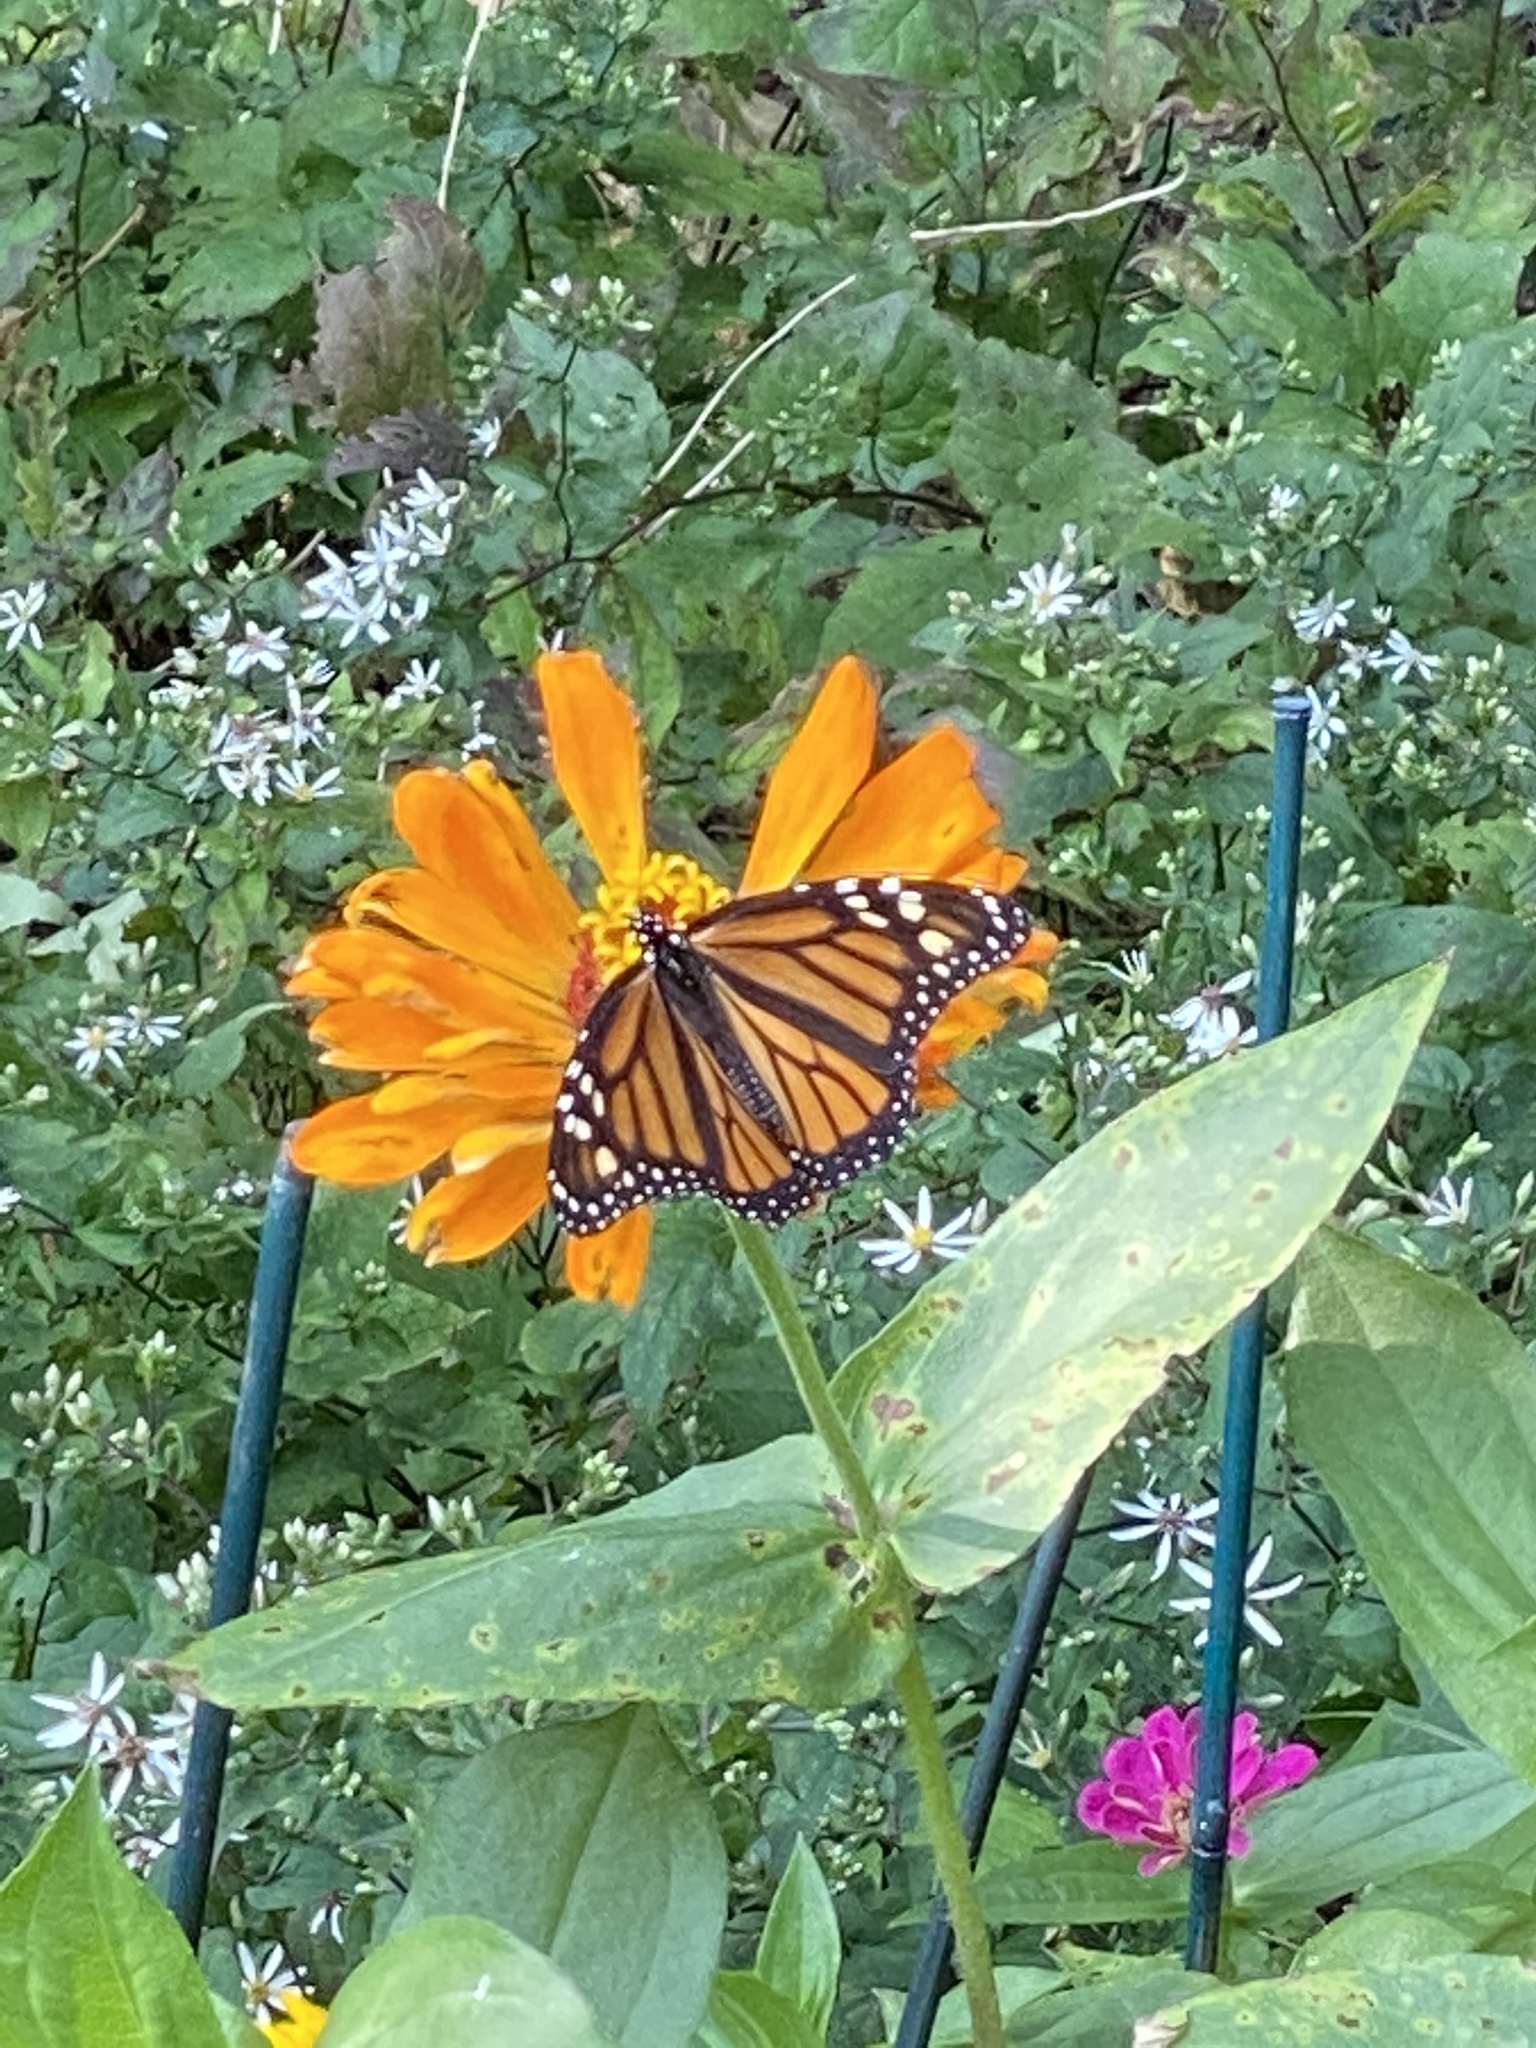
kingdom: Animalia
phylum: Arthropoda
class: Insecta
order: Lepidoptera
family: Nymphalidae
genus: Danaus
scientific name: Danaus plexippus
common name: Monarch
